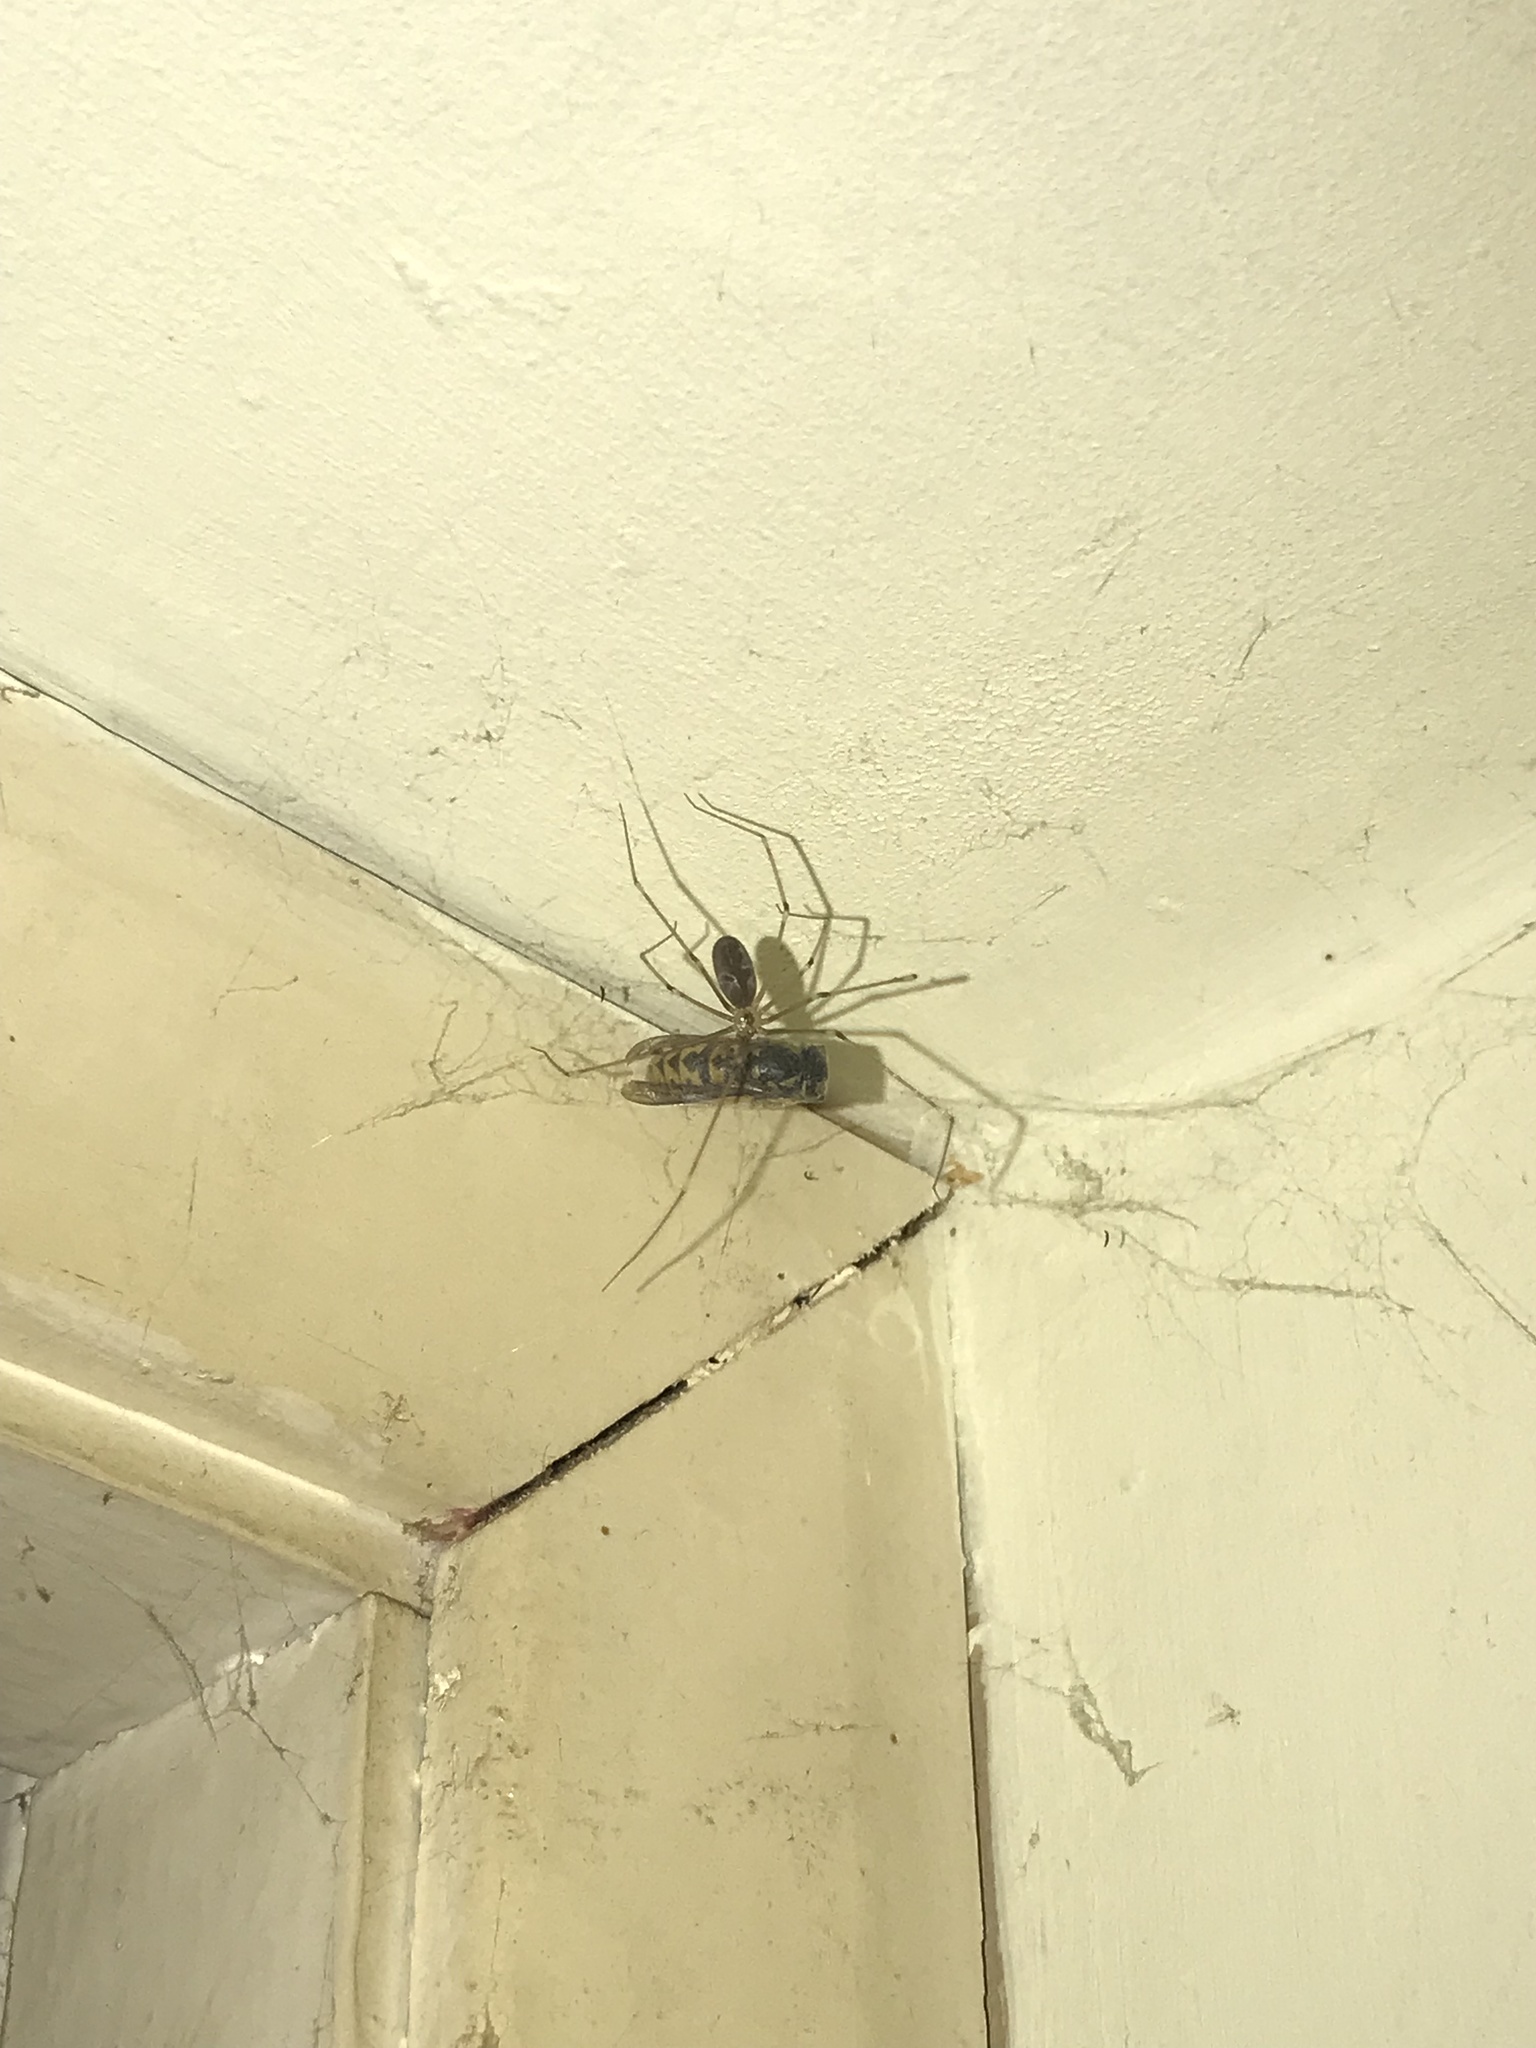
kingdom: Animalia
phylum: Arthropoda
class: Arachnida
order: Araneae
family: Pholcidae
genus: Pholcus
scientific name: Pholcus phalangioides
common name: Longbodied cellar spider
